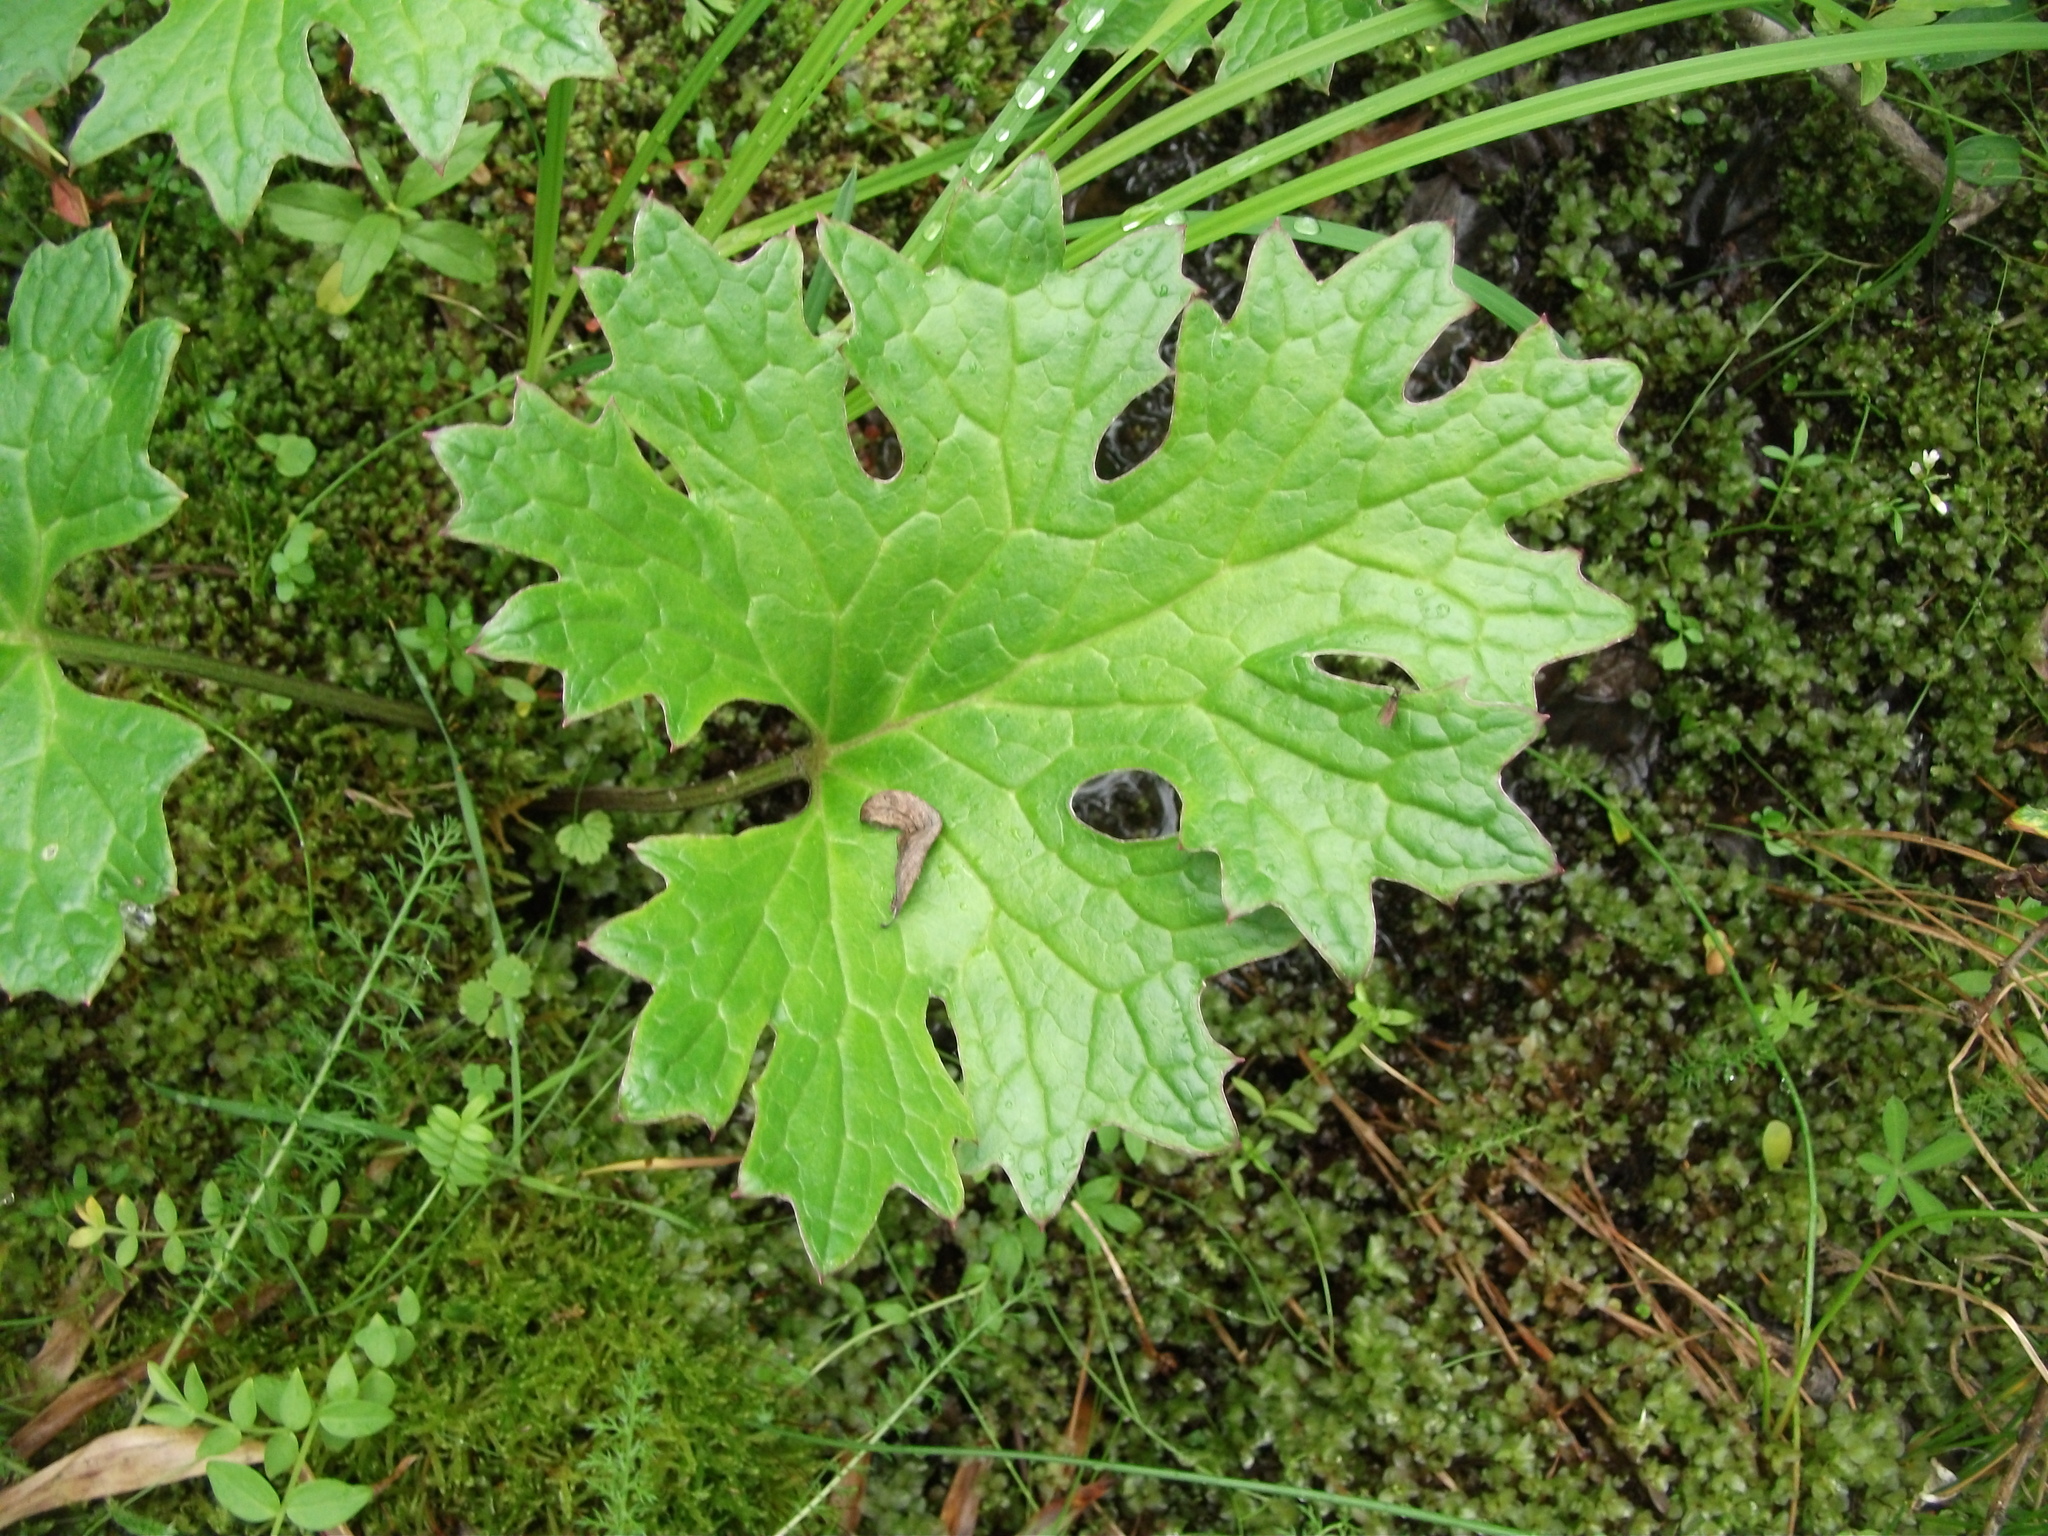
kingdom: Plantae
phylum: Tracheophyta
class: Magnoliopsida
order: Asterales
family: Asteraceae
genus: Petasites
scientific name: Petasites frigidus
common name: Arctic butterbur
